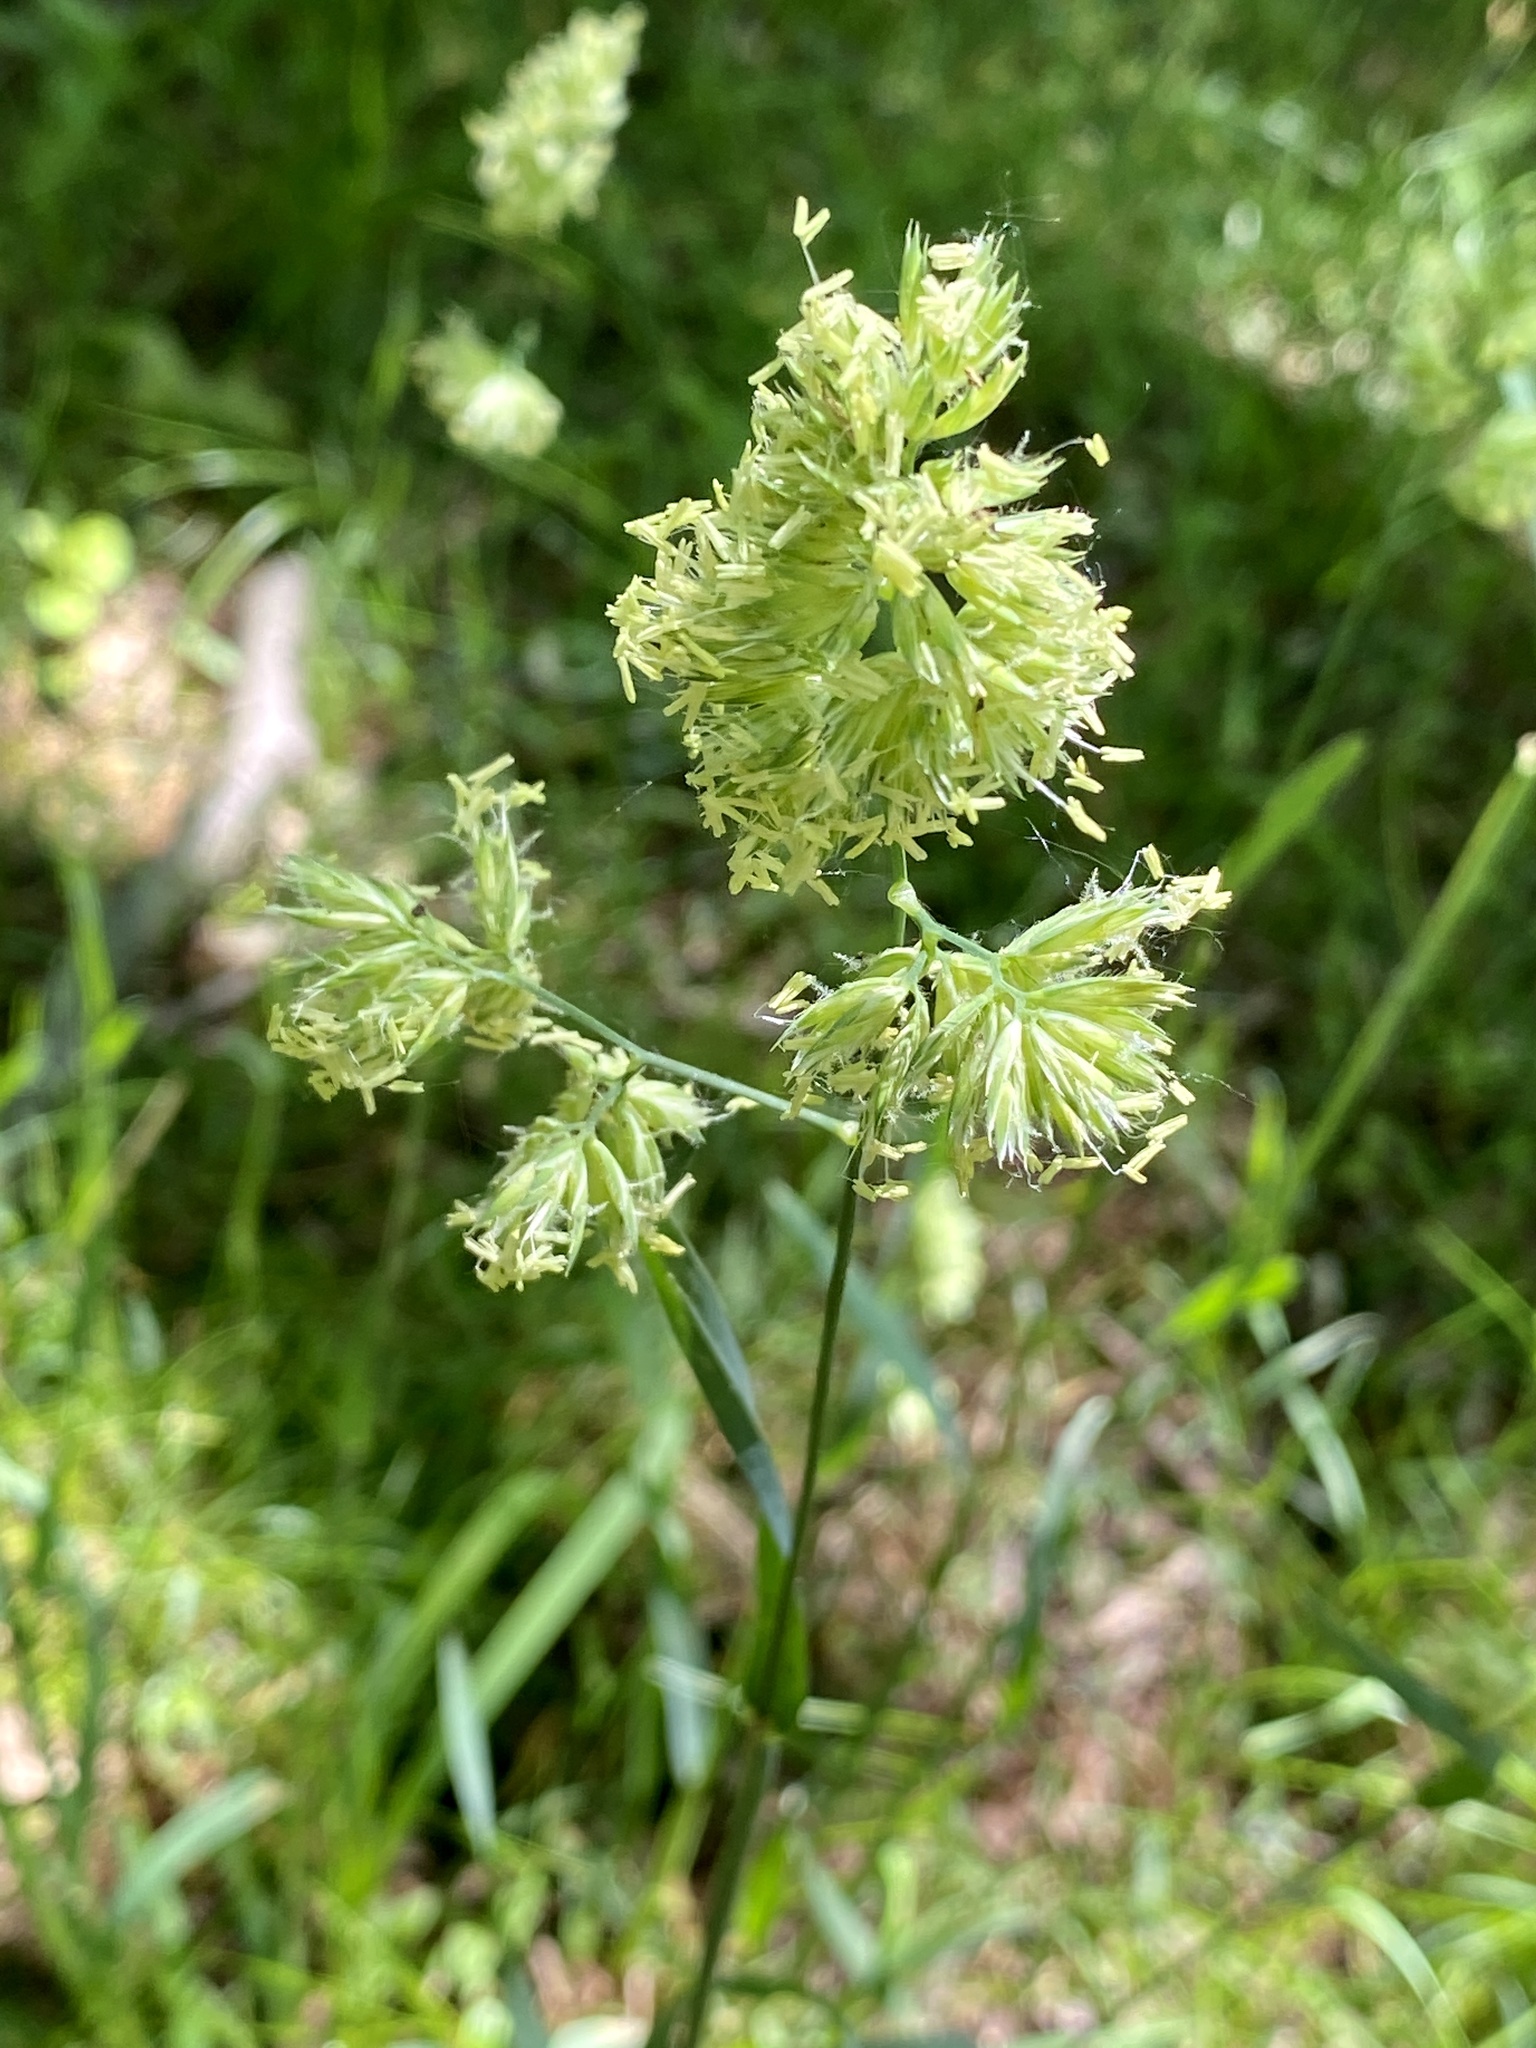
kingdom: Plantae
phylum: Tracheophyta
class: Liliopsida
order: Poales
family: Poaceae
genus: Dactylis
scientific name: Dactylis glomerata
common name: Orchardgrass
